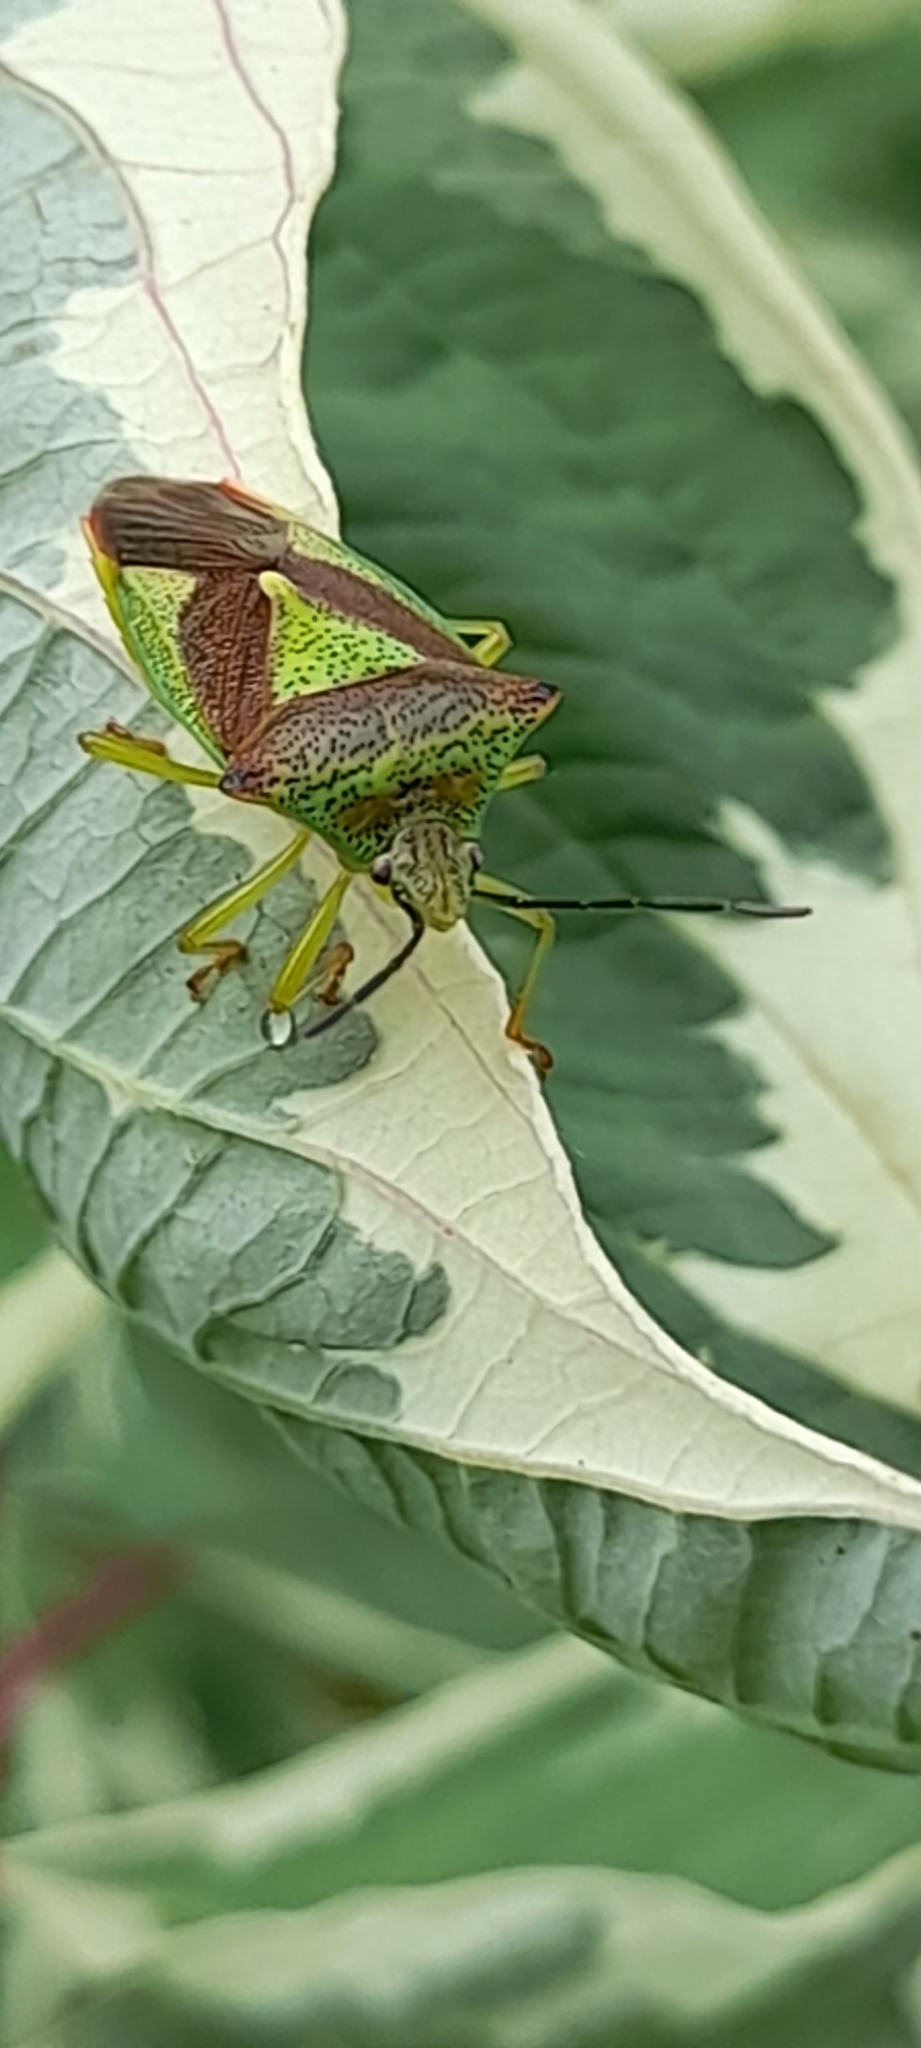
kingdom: Animalia
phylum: Arthropoda
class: Insecta
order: Hemiptera
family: Acanthosomatidae
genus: Acanthosoma
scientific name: Acanthosoma haemorrhoidale
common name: Hawthorn shieldbug
